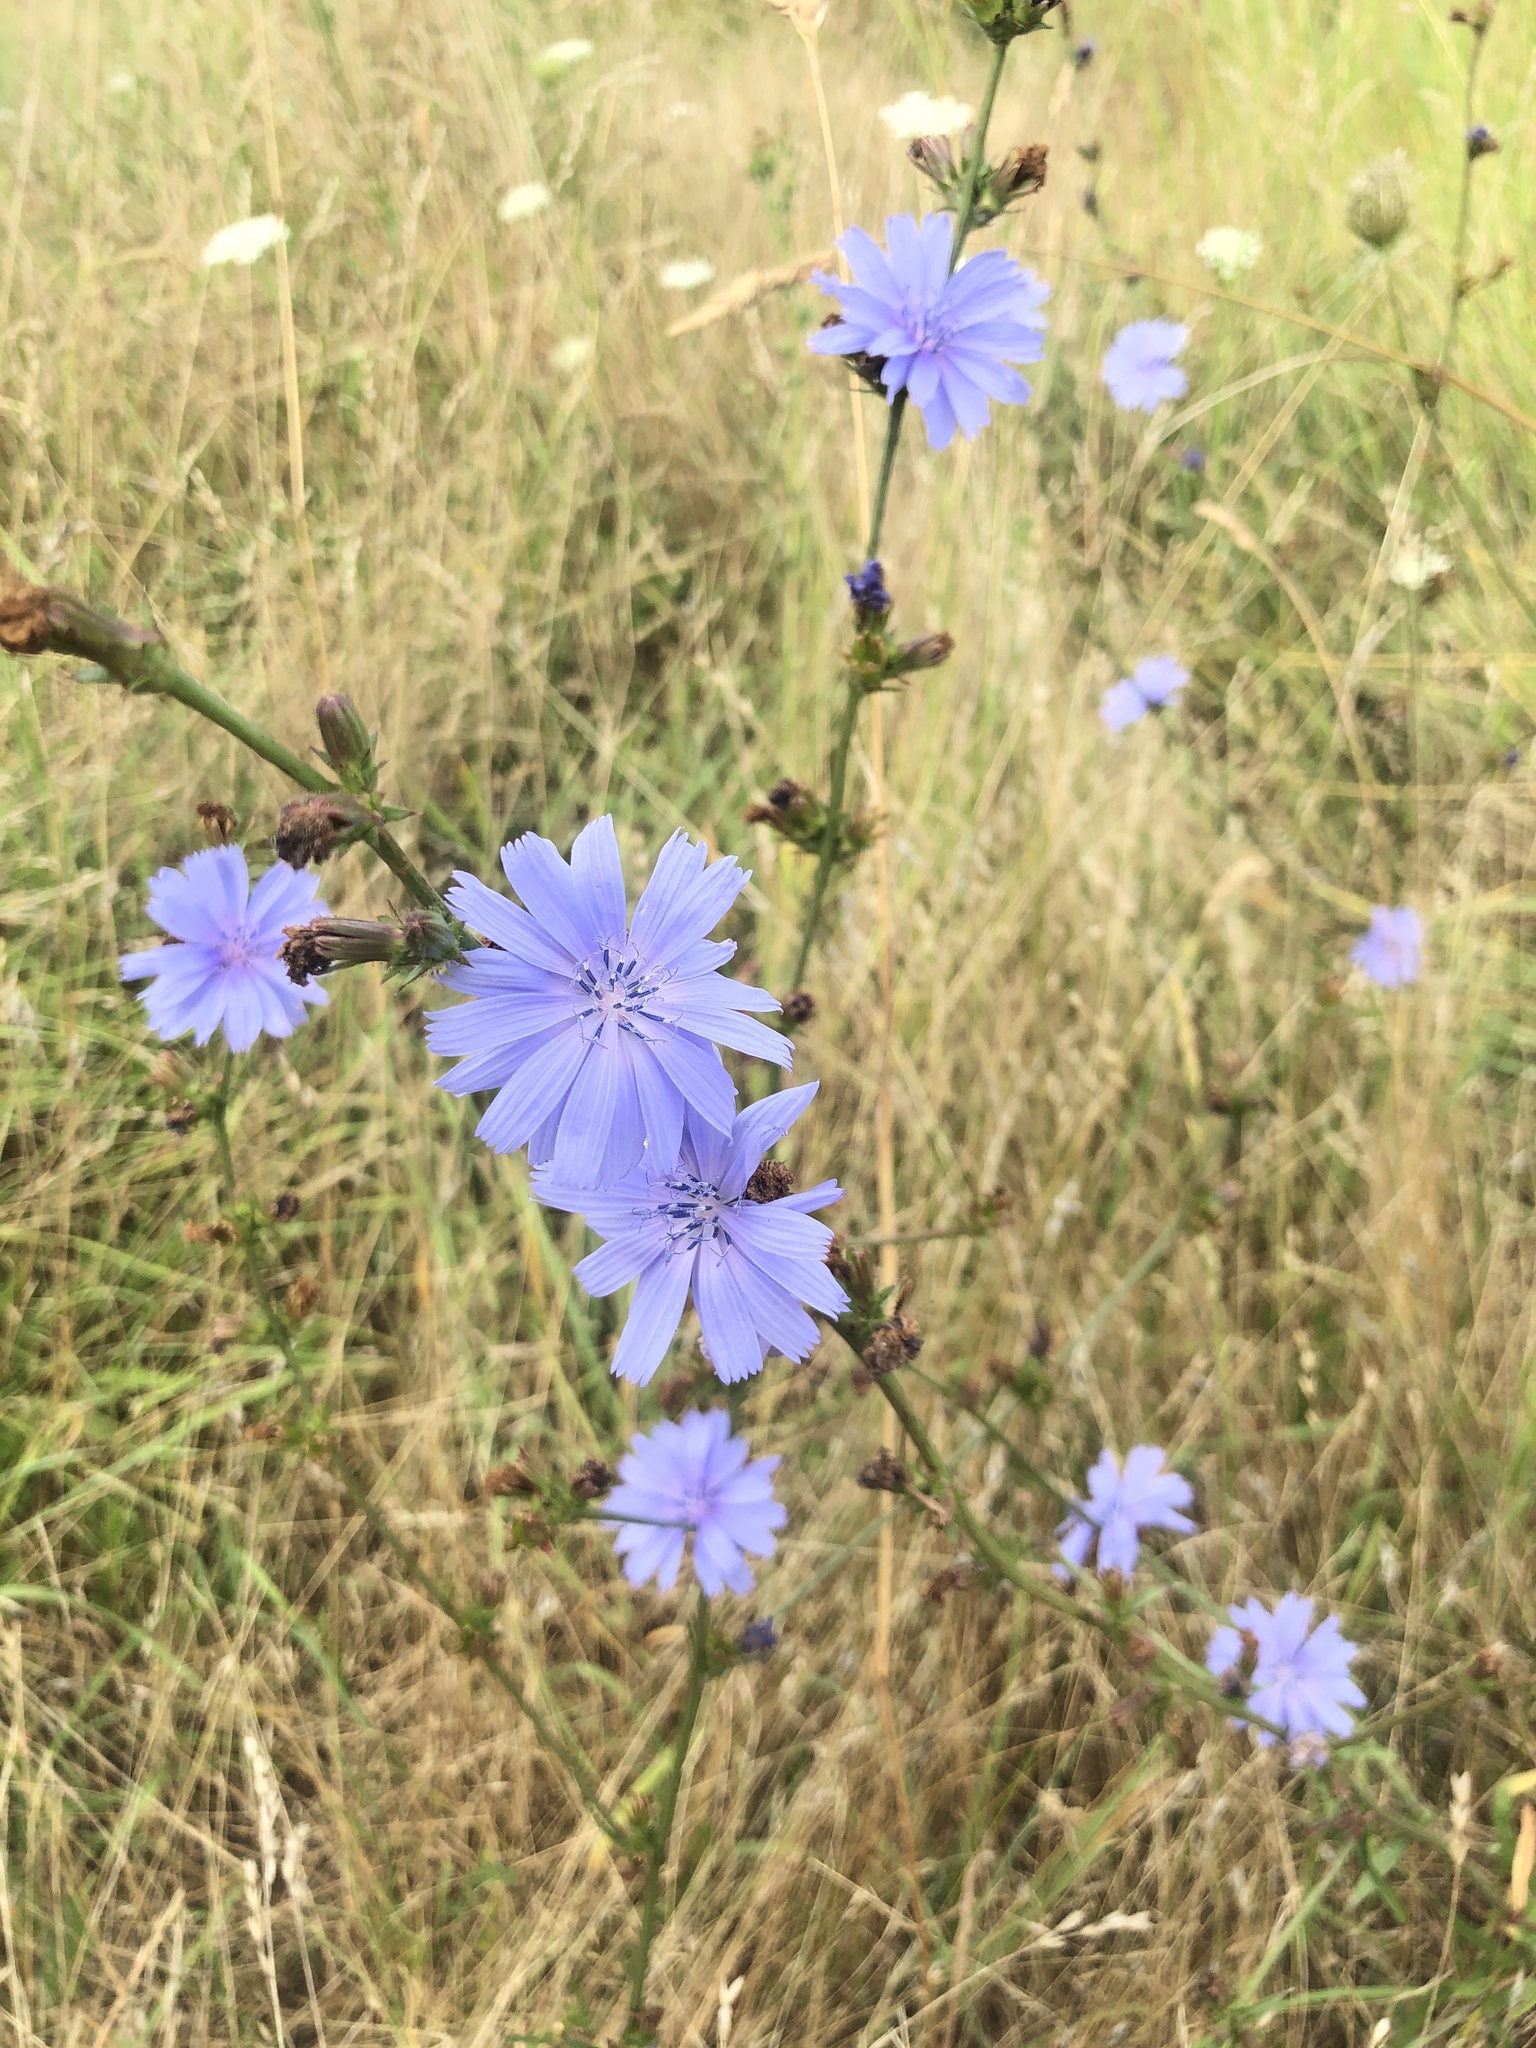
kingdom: Plantae
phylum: Tracheophyta
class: Magnoliopsida
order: Asterales
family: Asteraceae
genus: Cichorium
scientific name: Cichorium intybus
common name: Chicory
